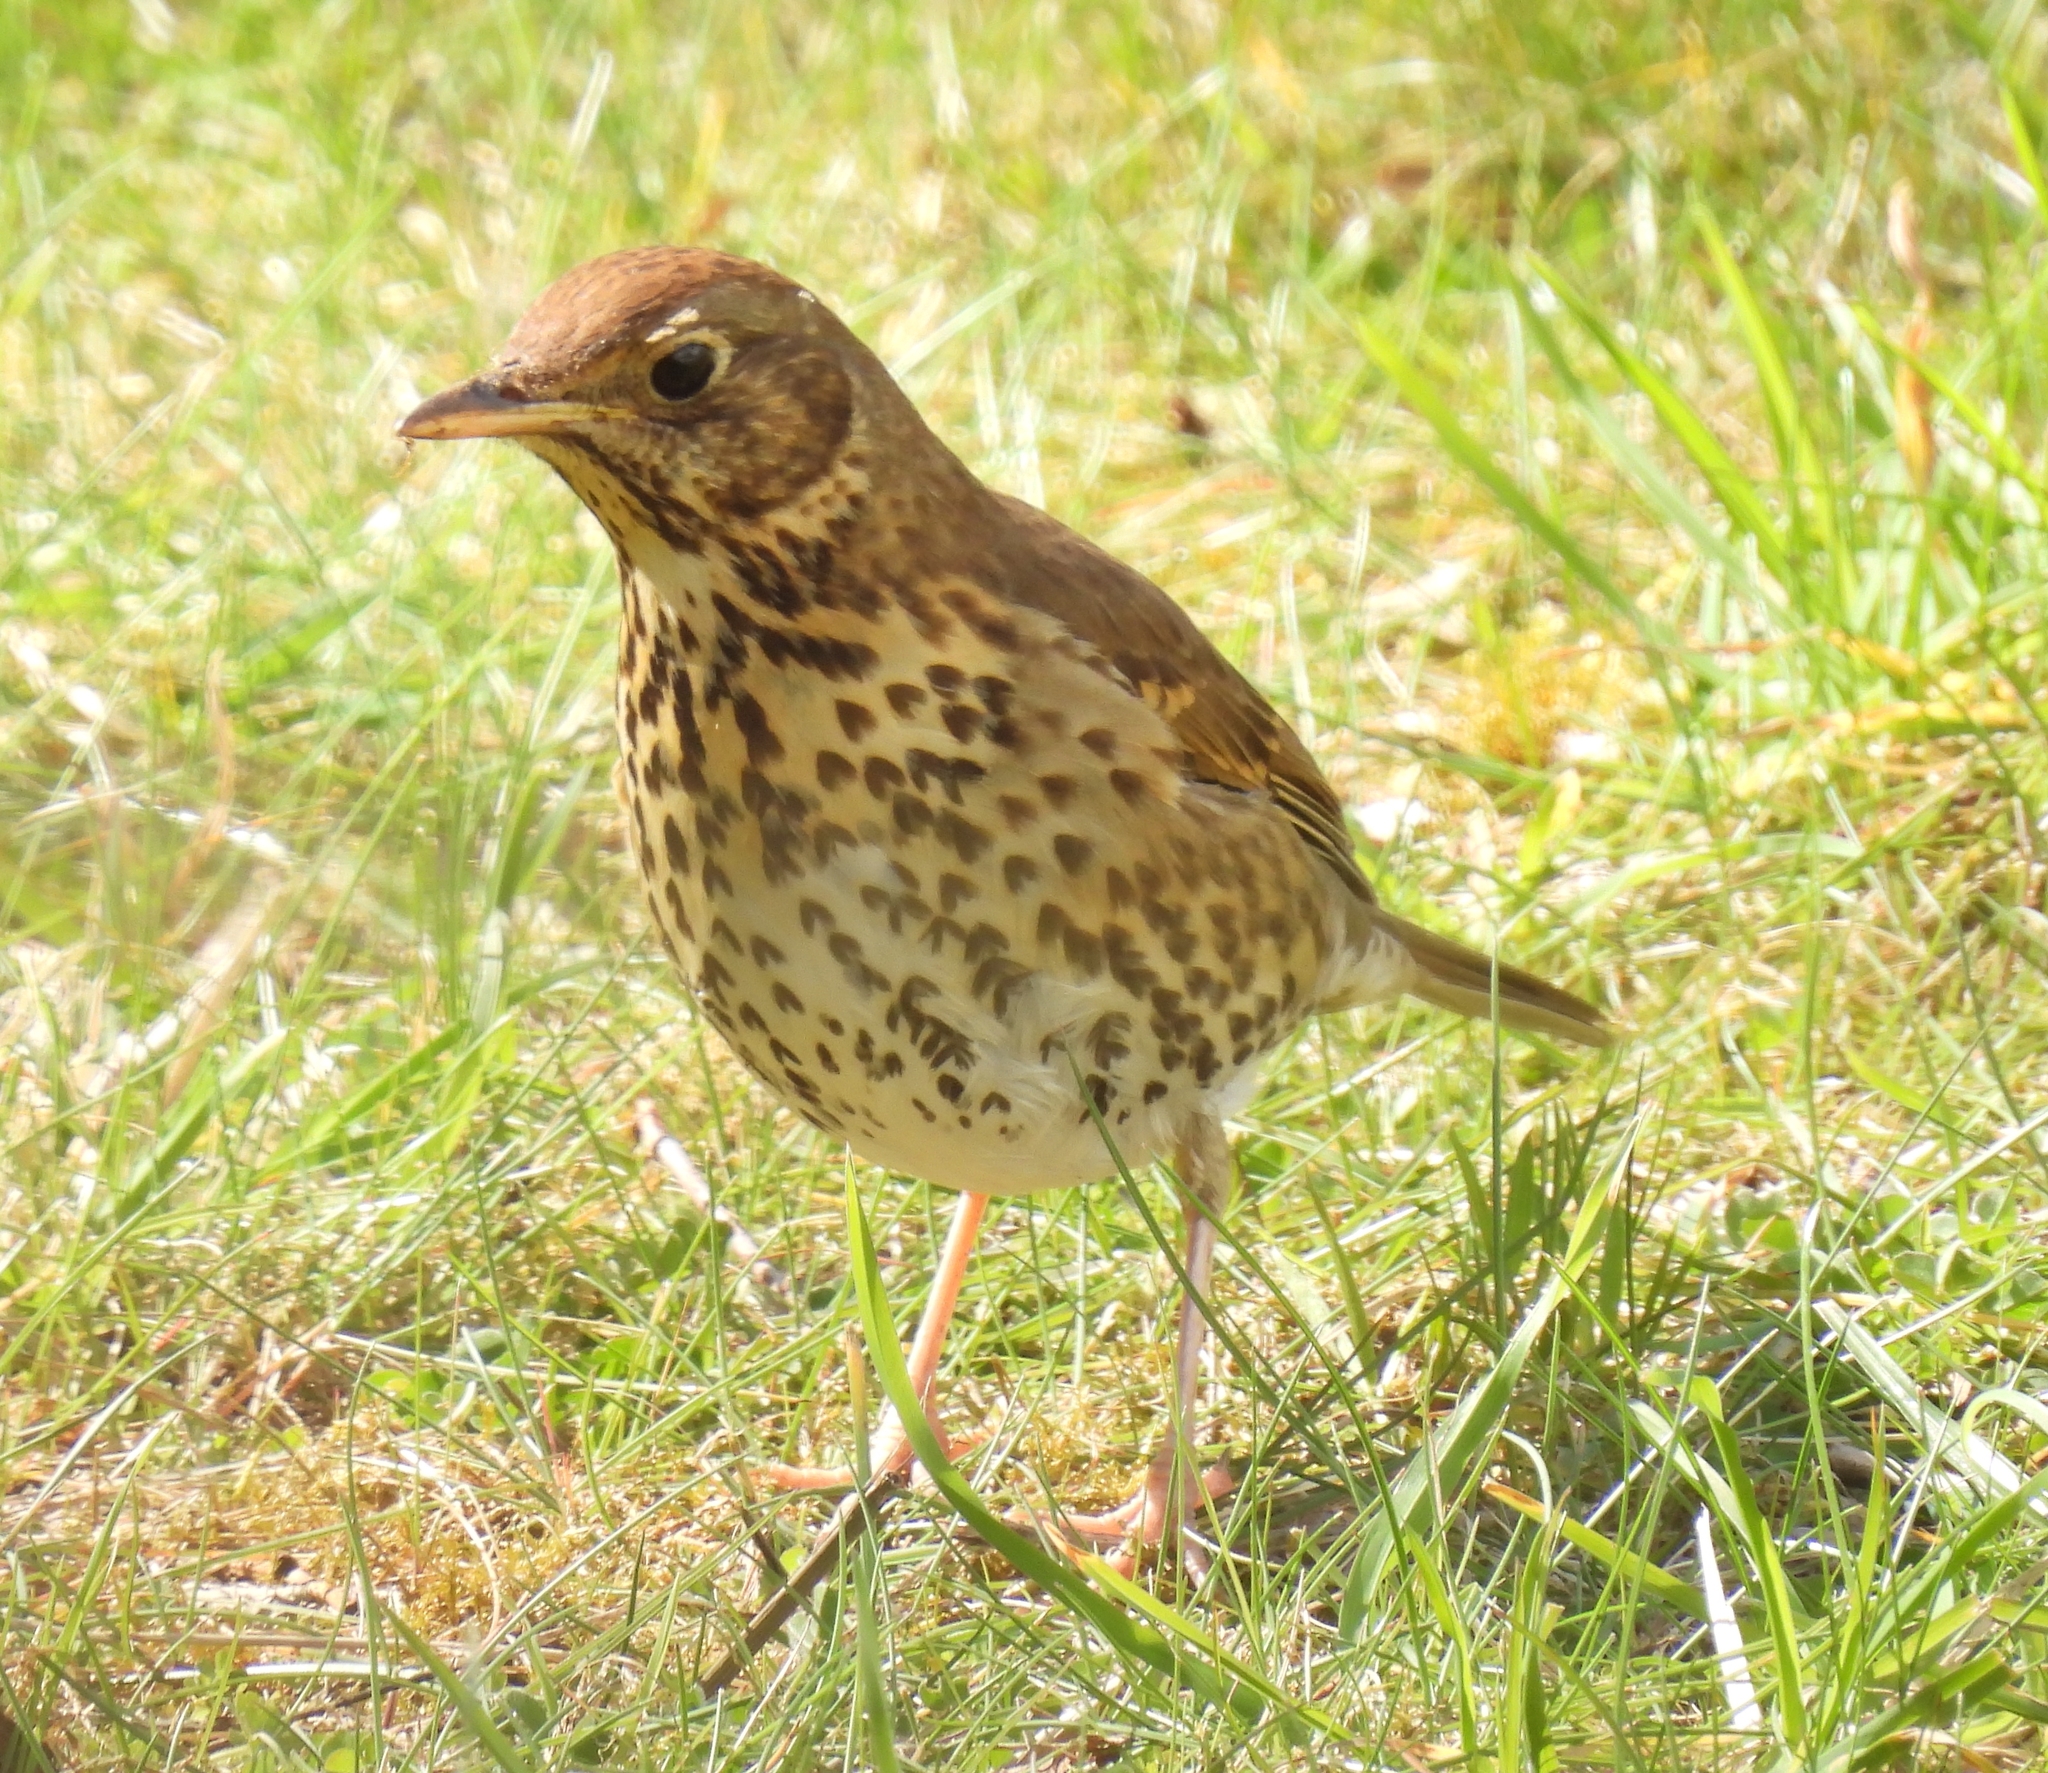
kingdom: Animalia
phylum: Chordata
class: Aves
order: Passeriformes
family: Turdidae
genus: Turdus
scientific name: Turdus philomelos
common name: Song thrush
